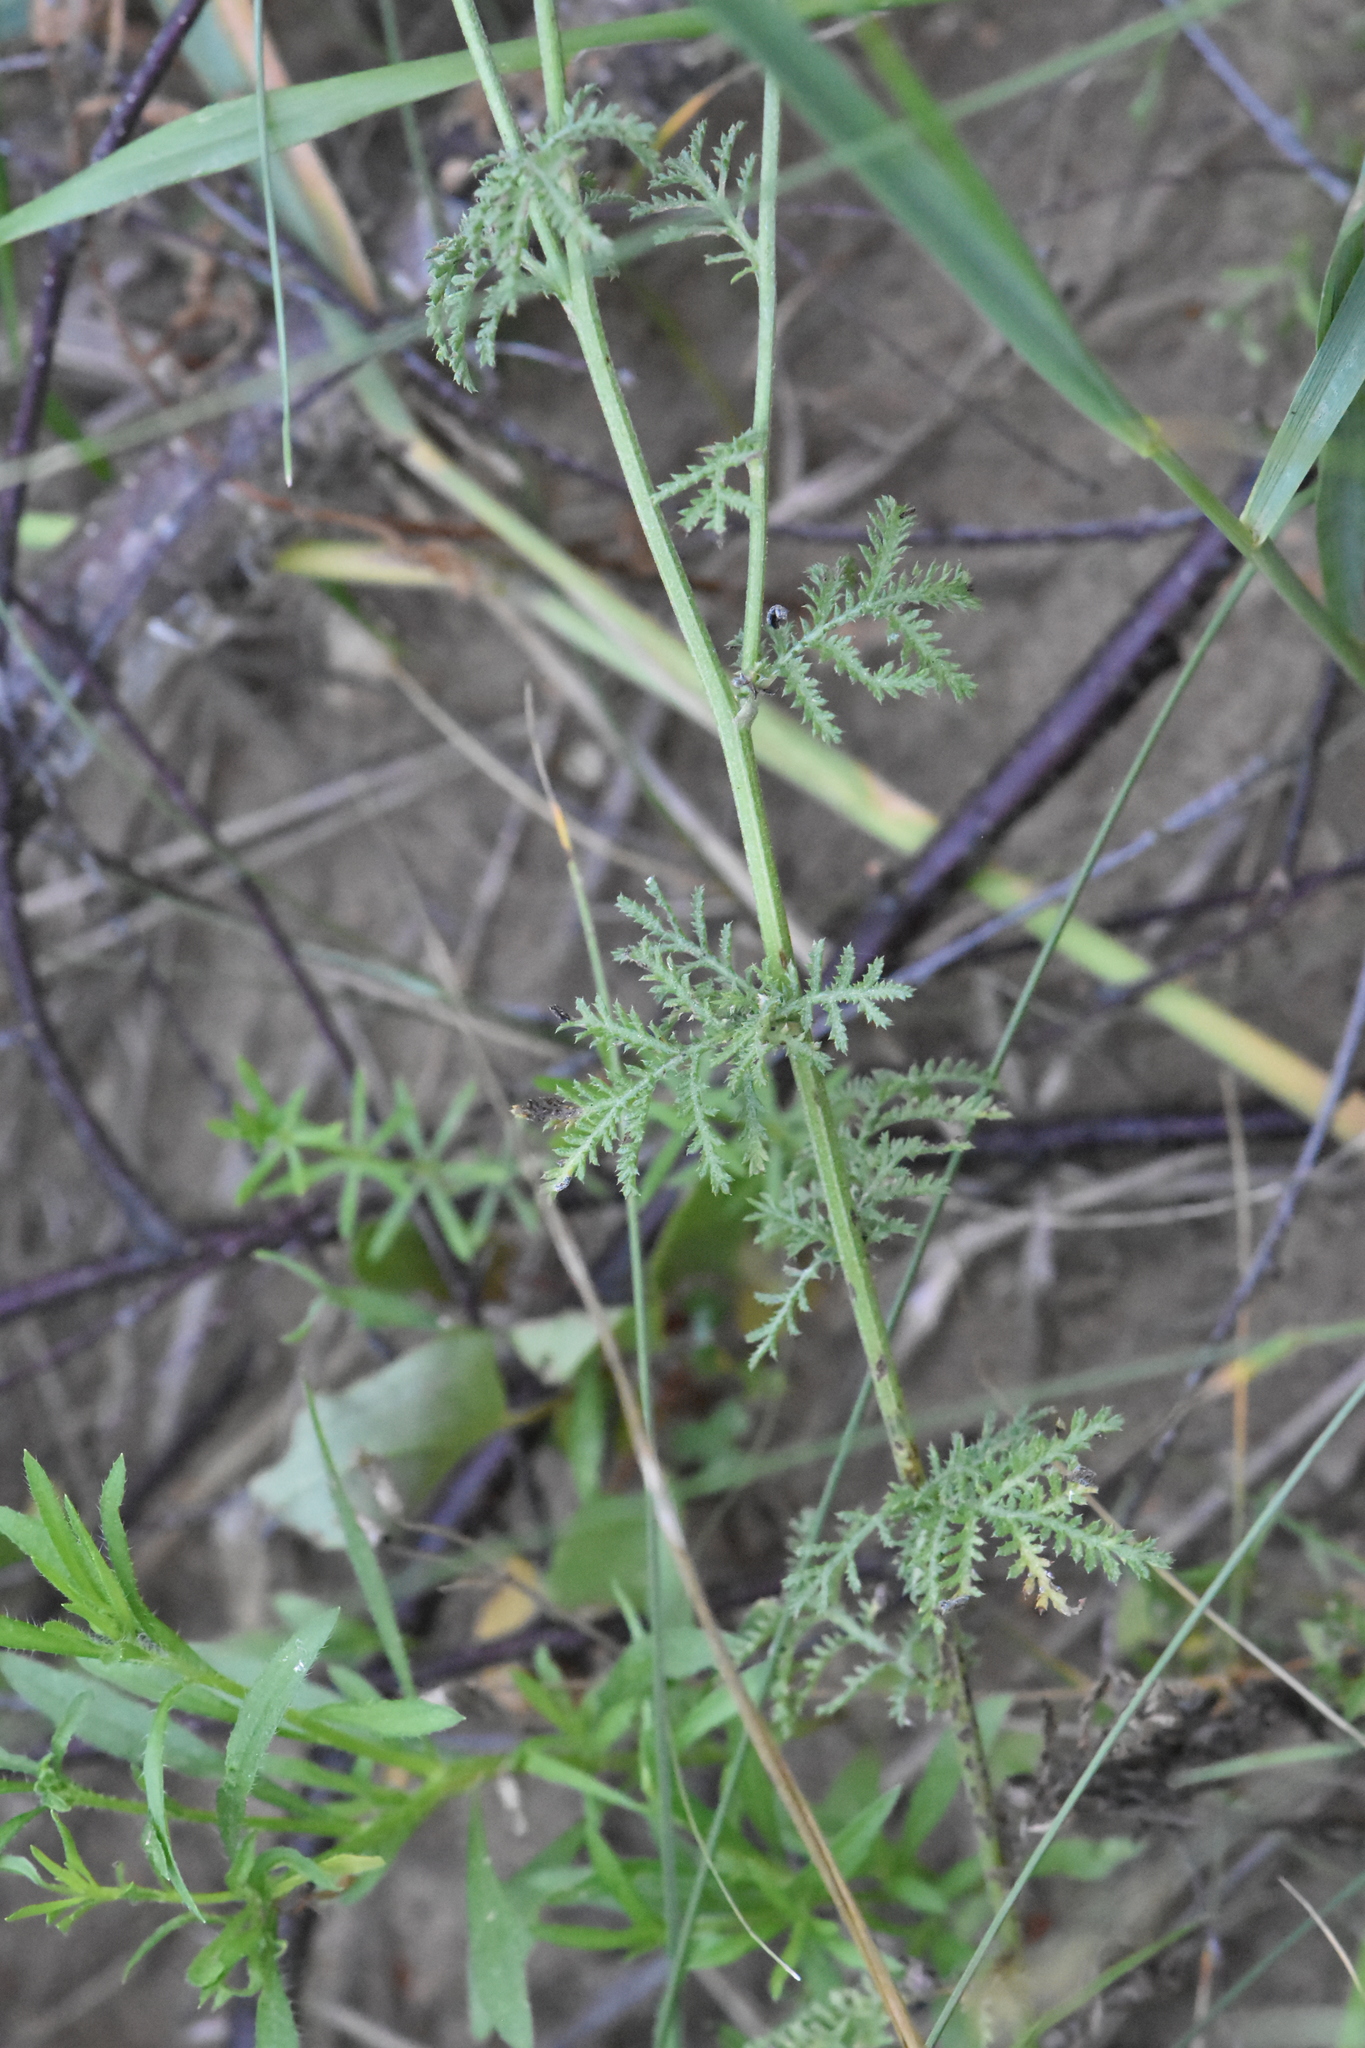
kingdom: Plantae
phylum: Tracheophyta
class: Magnoliopsida
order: Asterales
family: Asteraceae
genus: Cota
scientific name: Cota tinctoria
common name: Golden chamomile
